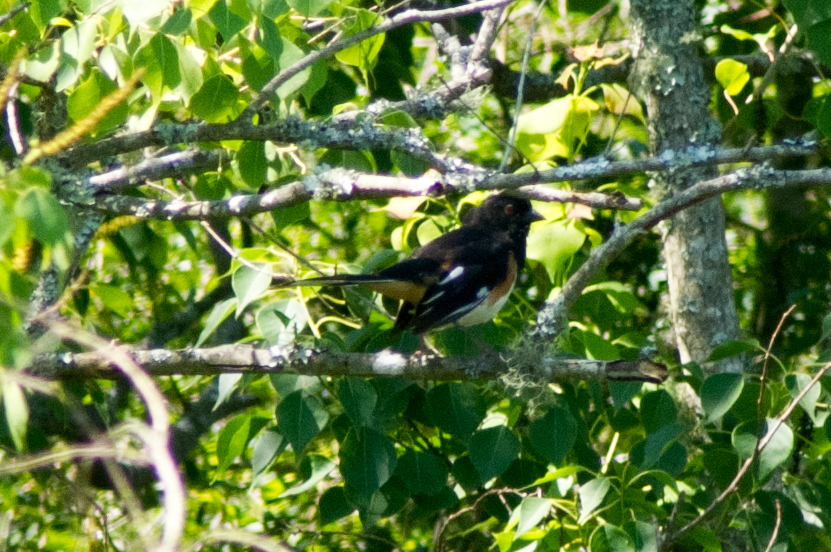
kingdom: Animalia
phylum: Chordata
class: Aves
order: Passeriformes
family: Passerellidae
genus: Pipilo
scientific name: Pipilo erythrophthalmus
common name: Eastern towhee
